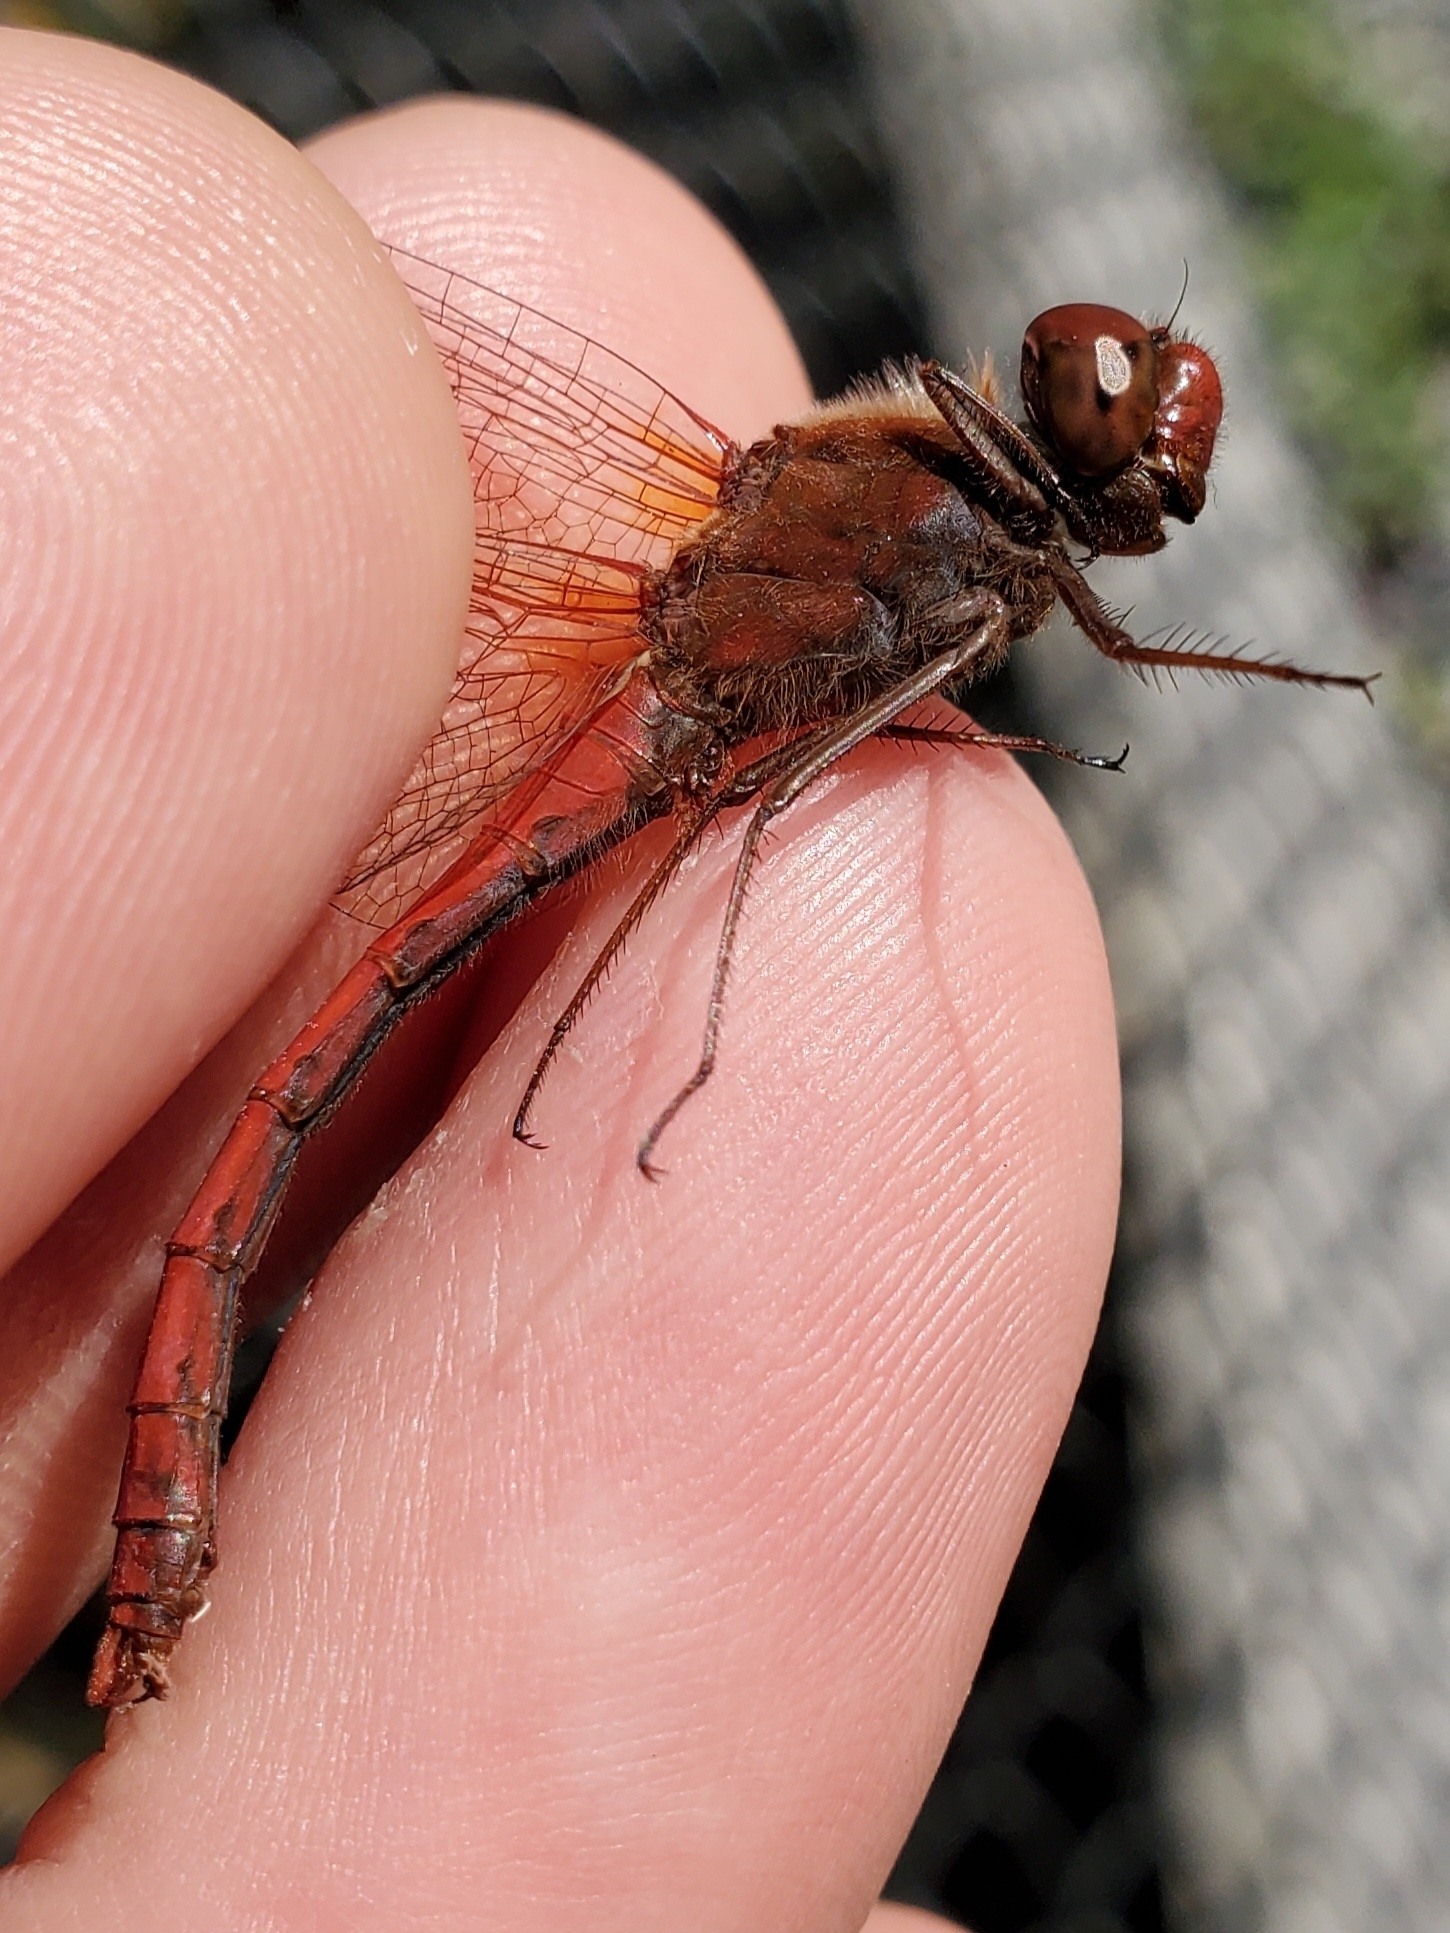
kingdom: Animalia
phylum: Arthropoda
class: Insecta
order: Odonata
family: Libellulidae
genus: Sympetrum
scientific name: Sympetrum vicinum
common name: Autumn meadowhawk
